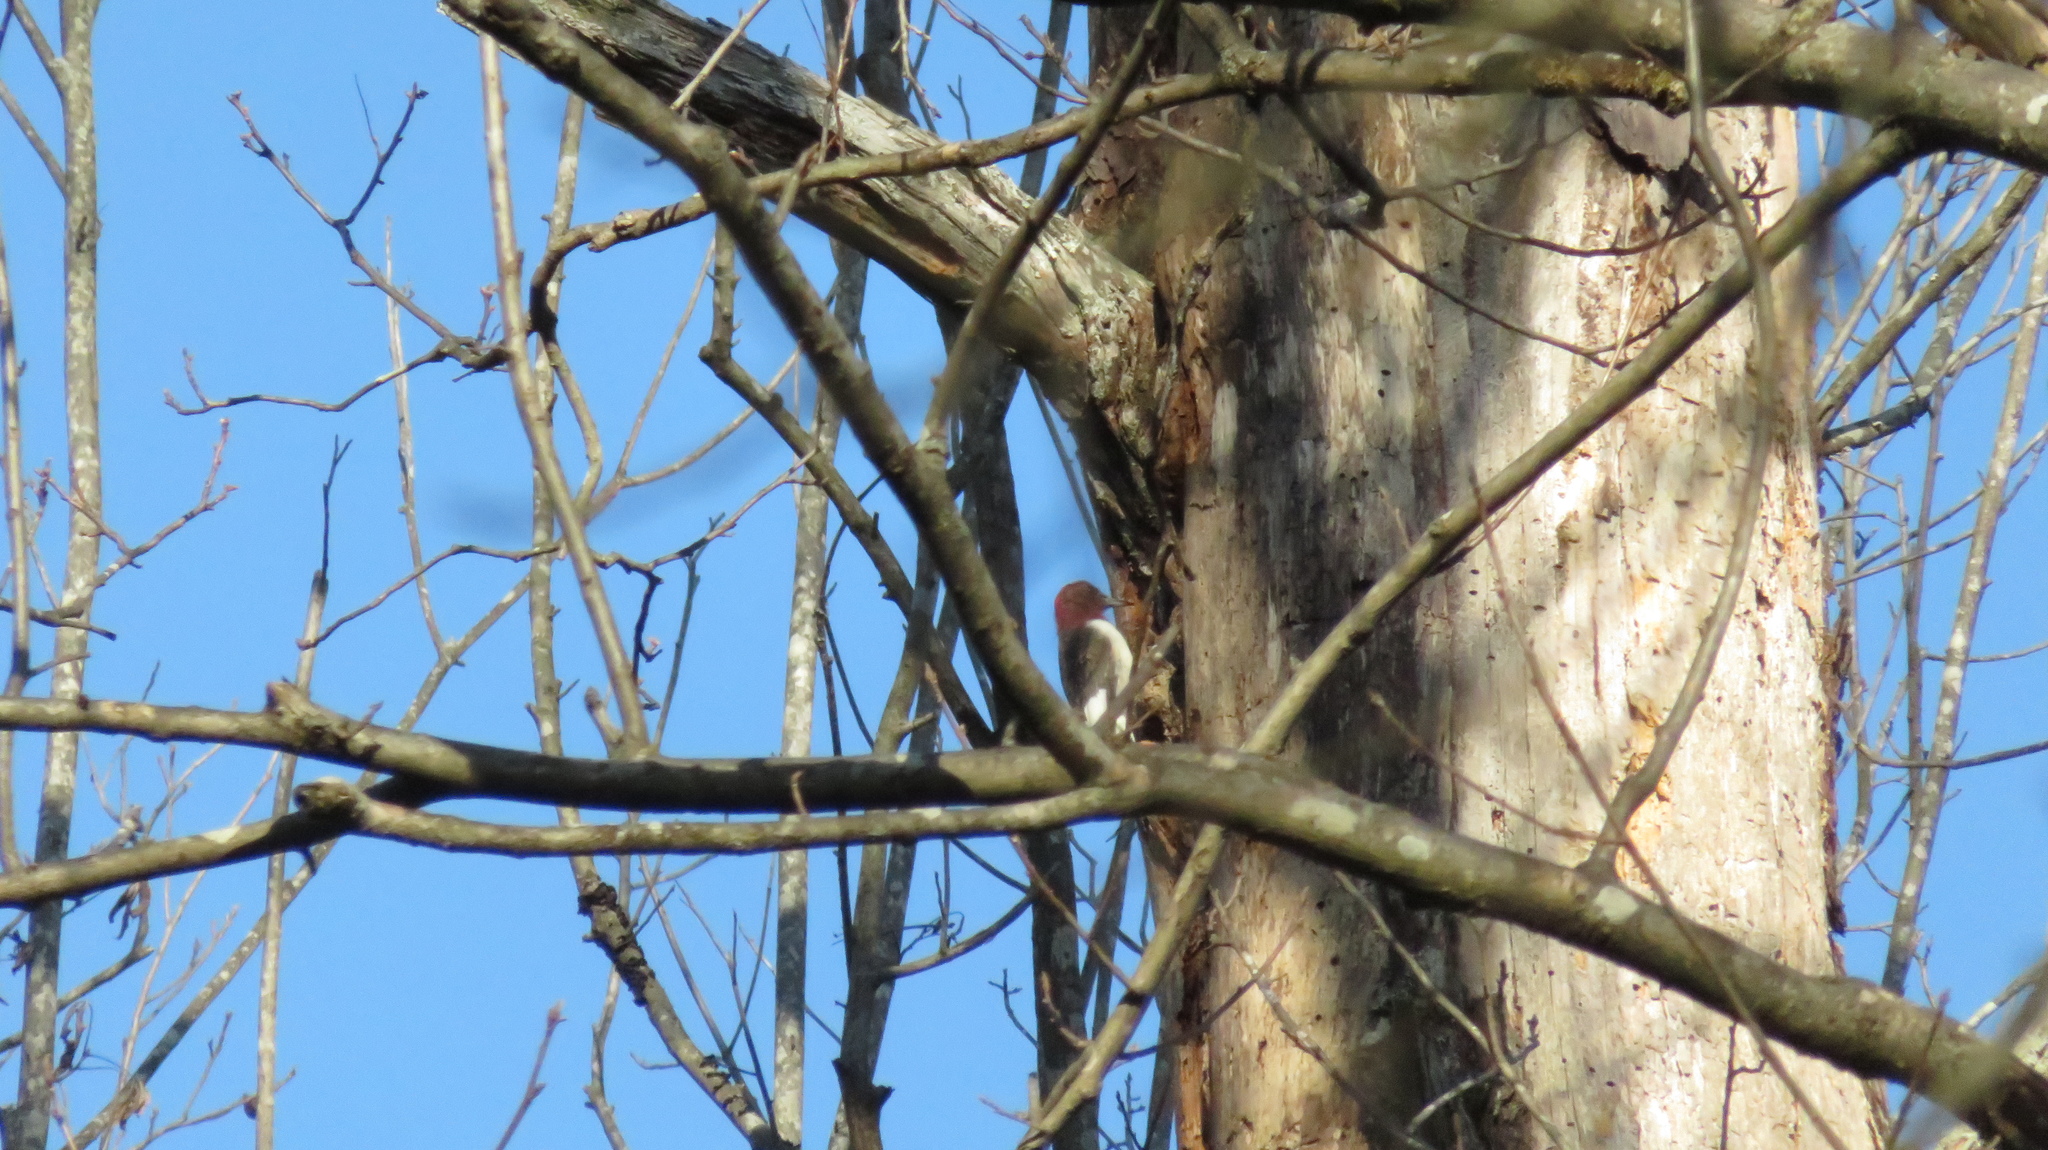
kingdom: Animalia
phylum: Chordata
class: Aves
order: Piciformes
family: Picidae
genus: Melanerpes
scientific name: Melanerpes erythrocephalus
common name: Red-headed woodpecker
